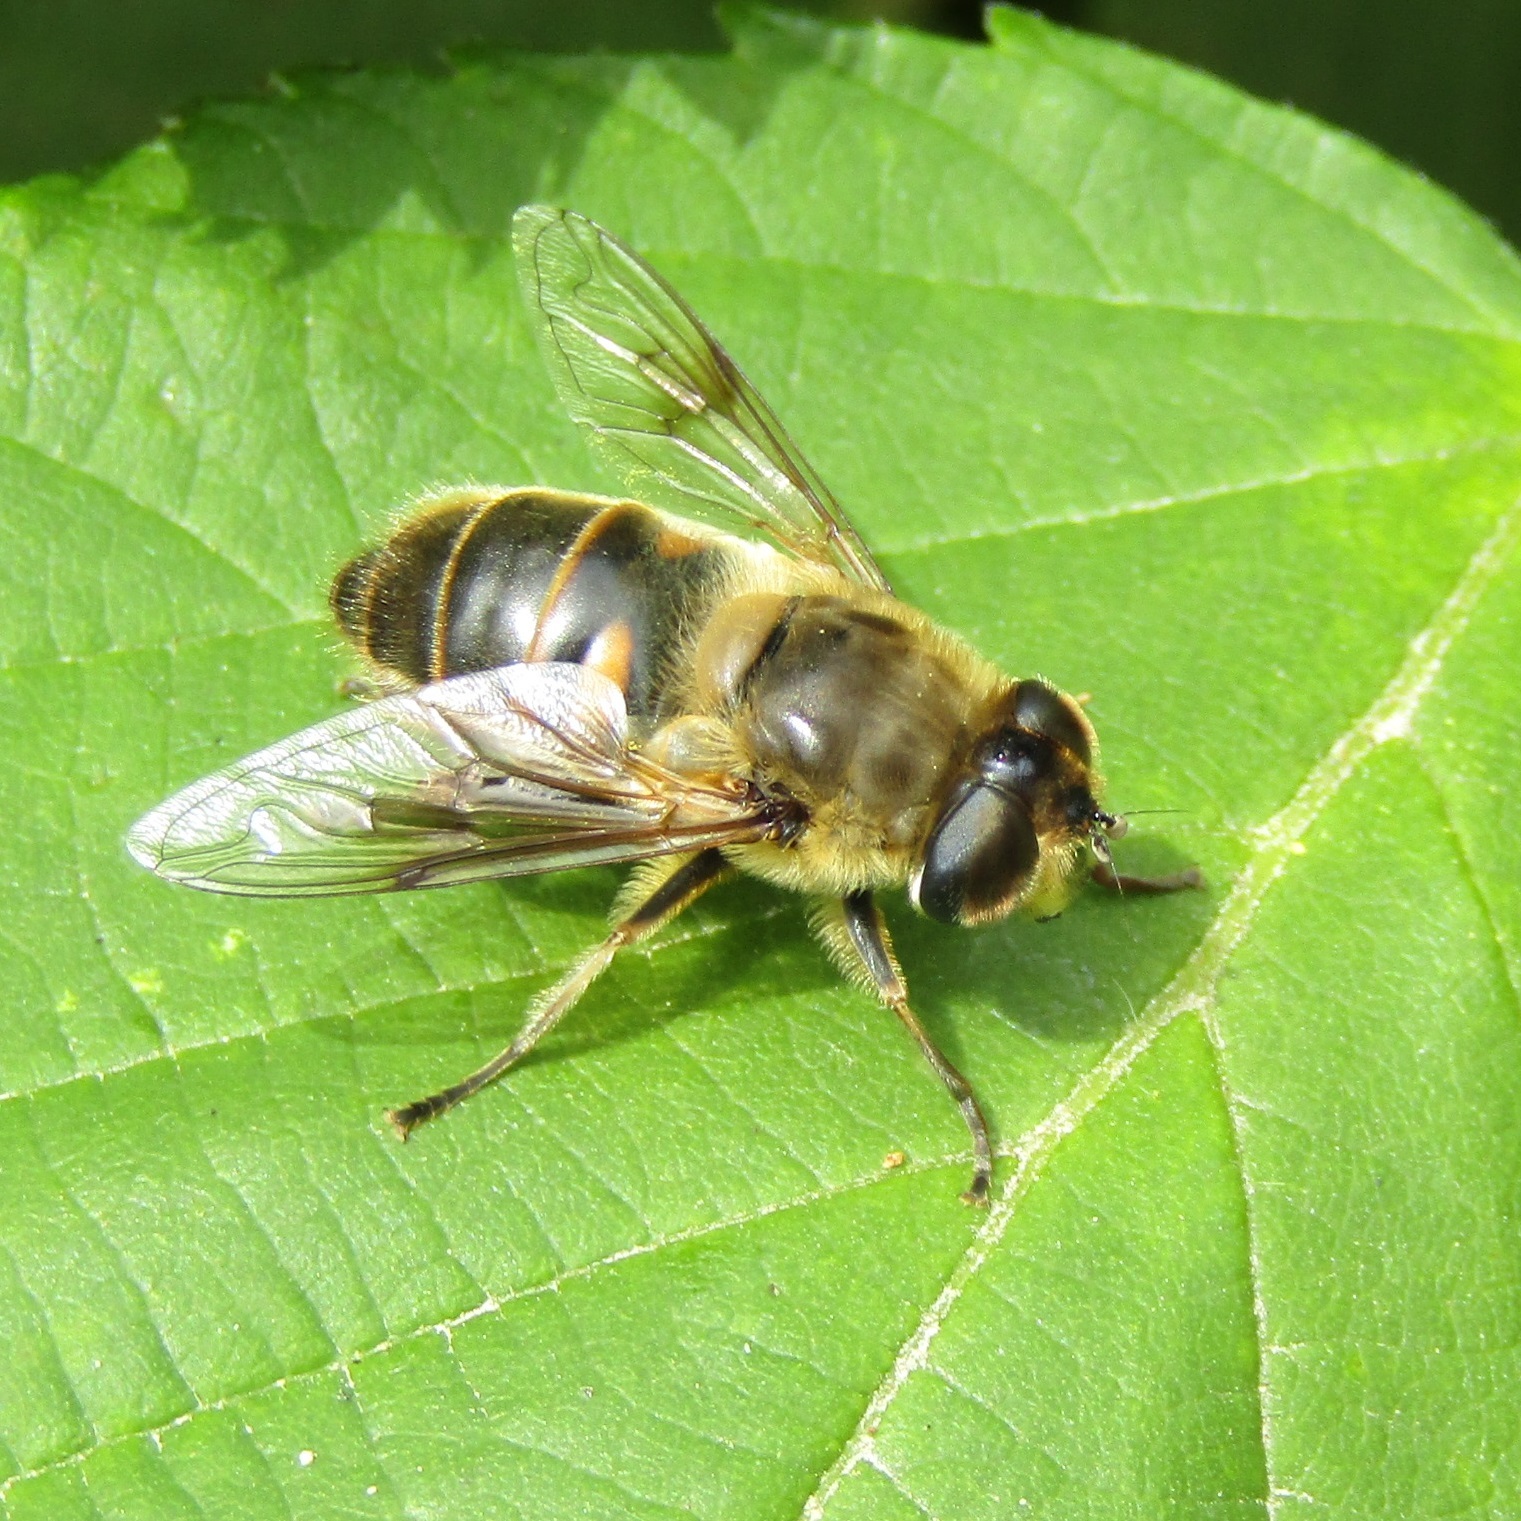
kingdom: Animalia
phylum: Arthropoda
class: Insecta
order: Diptera
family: Syrphidae
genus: Eristalis
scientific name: Eristalis tenax
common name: Drone fly
